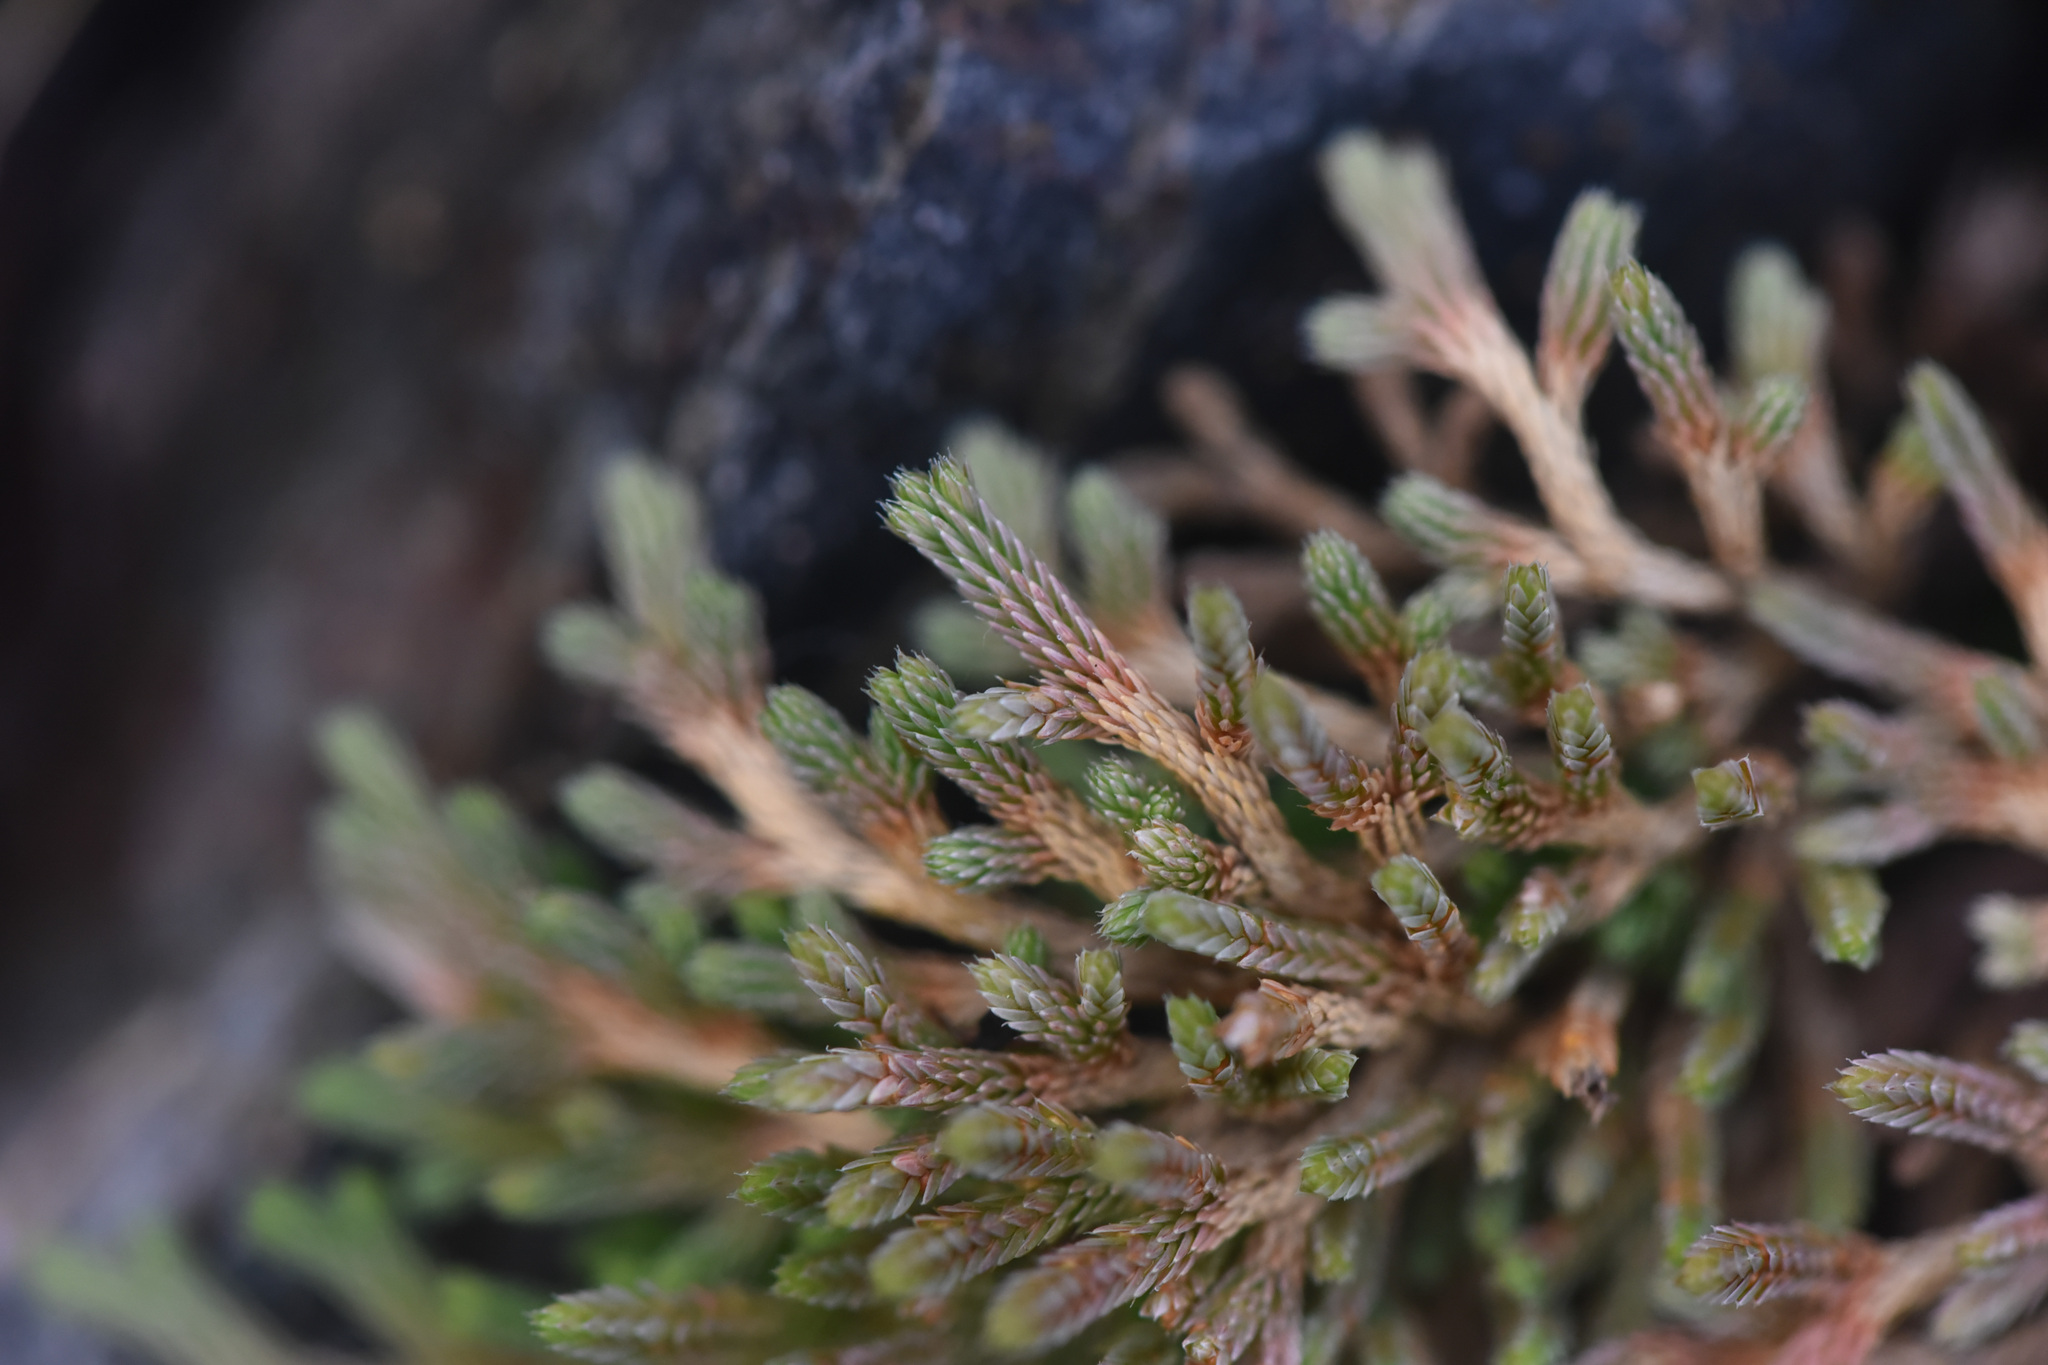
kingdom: Plantae
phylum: Tracheophyta
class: Lycopodiopsida
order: Selaginellales
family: Selaginellaceae
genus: Selaginella
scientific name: Selaginella wallacei
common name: Wallace's selaginella
